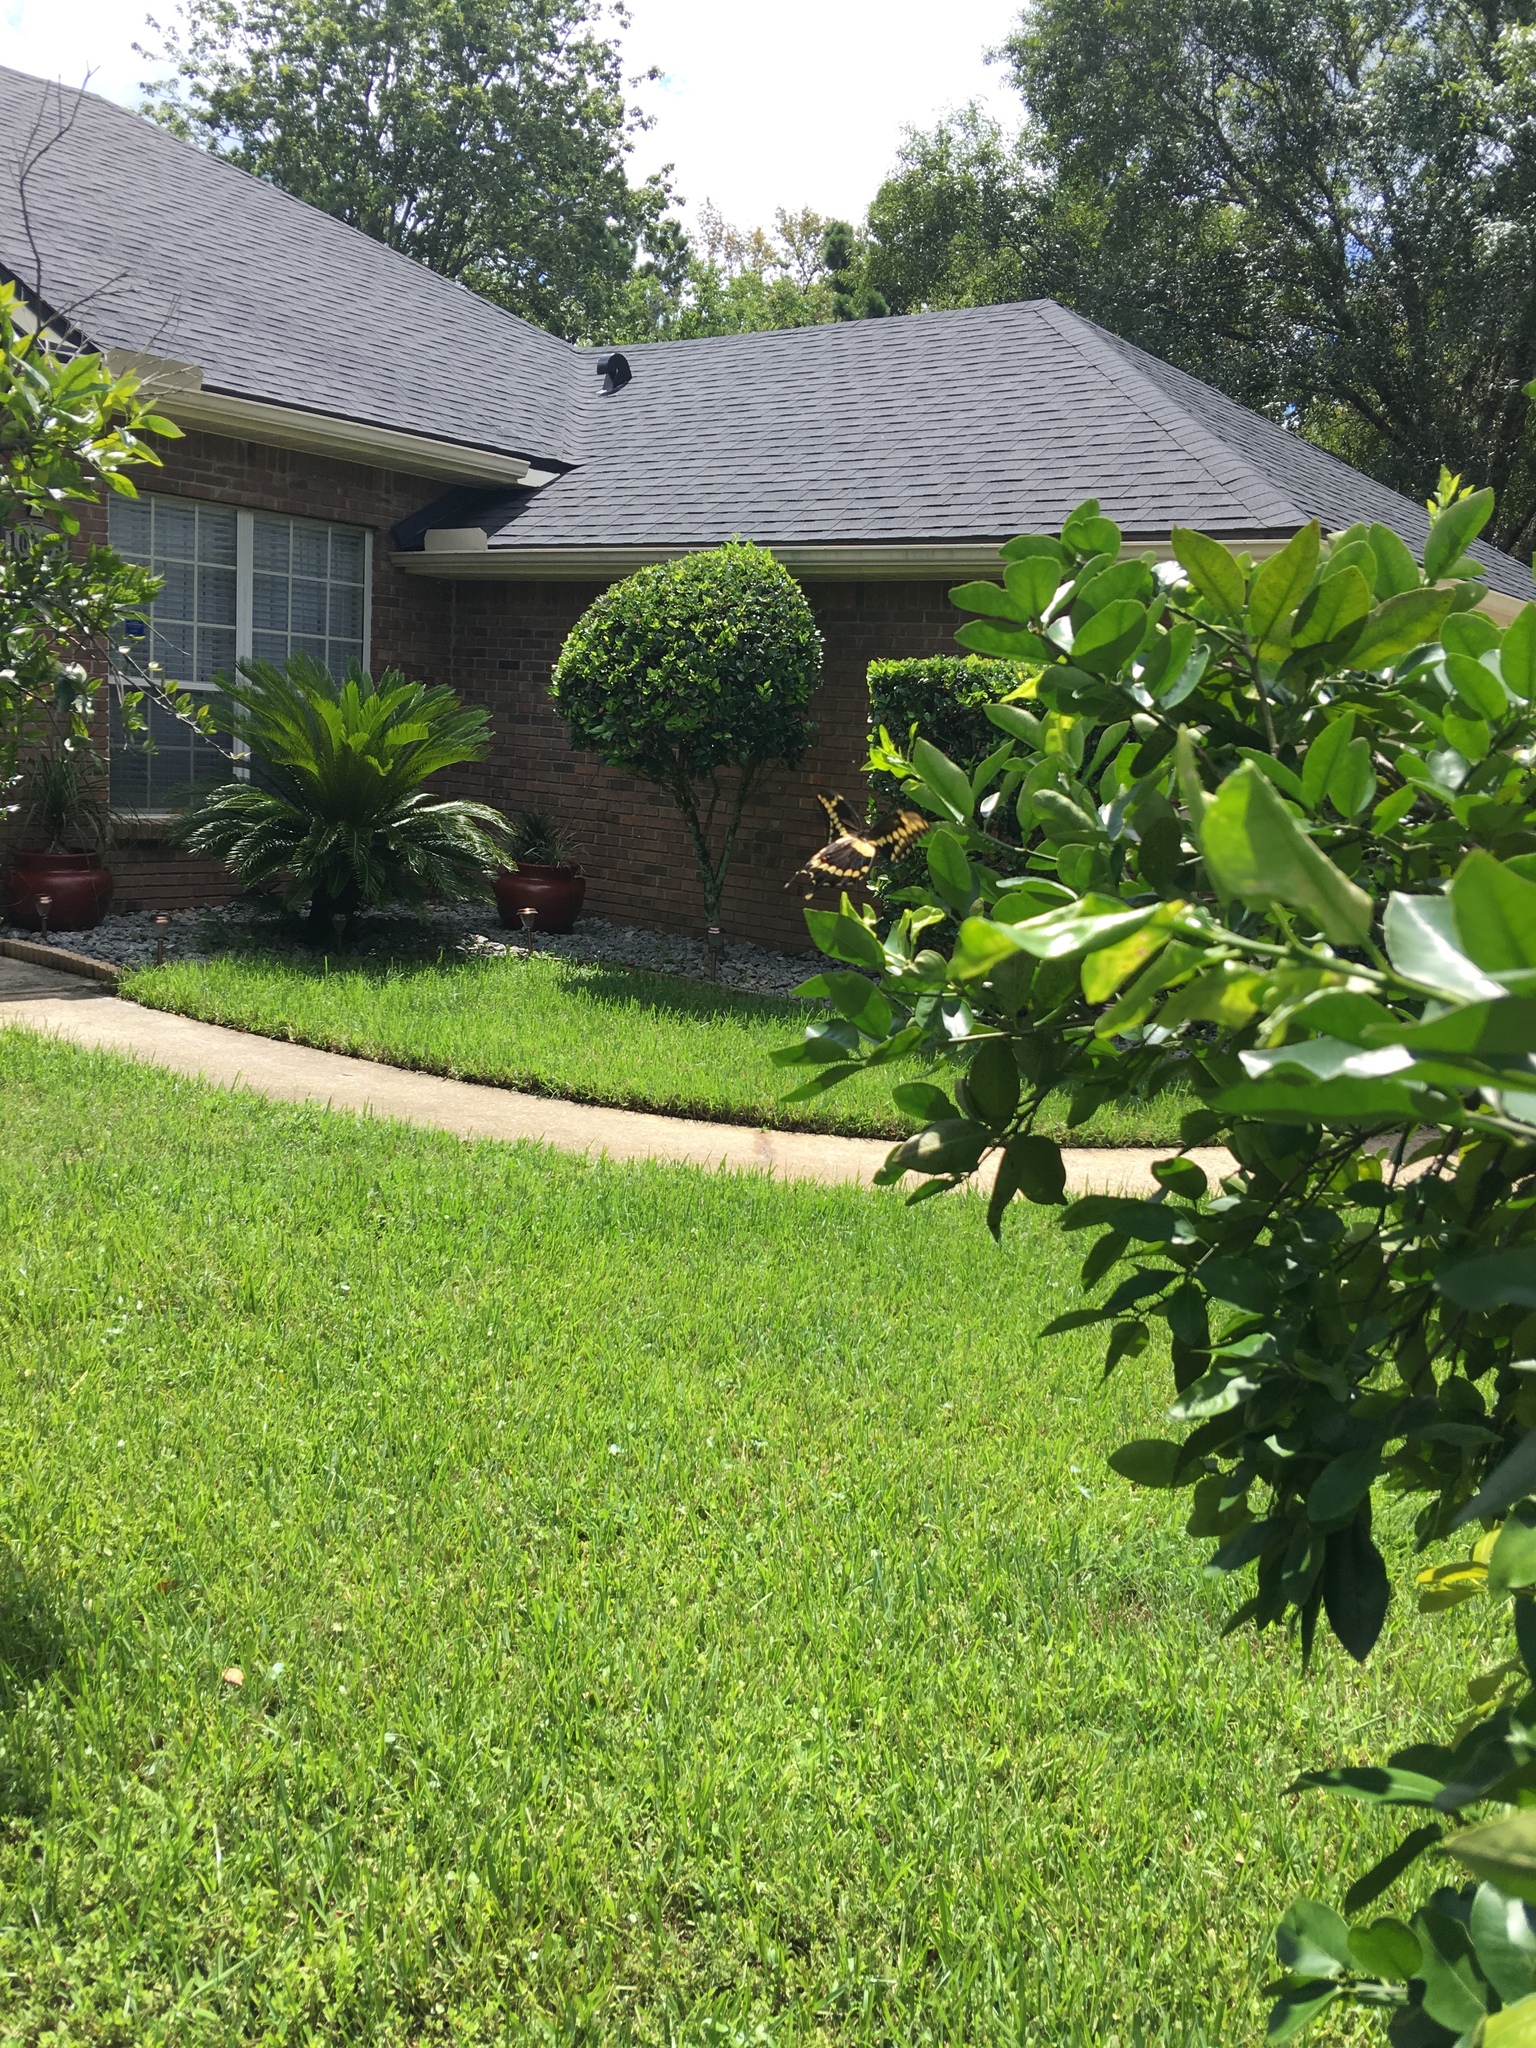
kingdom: Animalia
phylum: Arthropoda
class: Insecta
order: Lepidoptera
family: Papilionidae
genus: Papilio
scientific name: Papilio cresphontes
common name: Giant swallowtail
